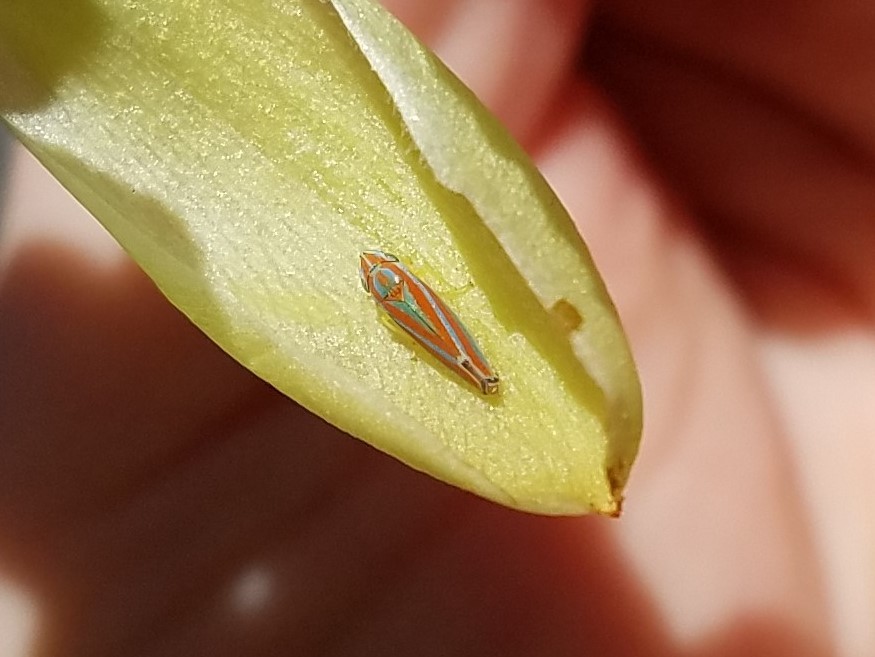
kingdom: Animalia
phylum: Arthropoda
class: Insecta
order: Hemiptera
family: Cicadellidae
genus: Graphocephala
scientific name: Graphocephala versuta
